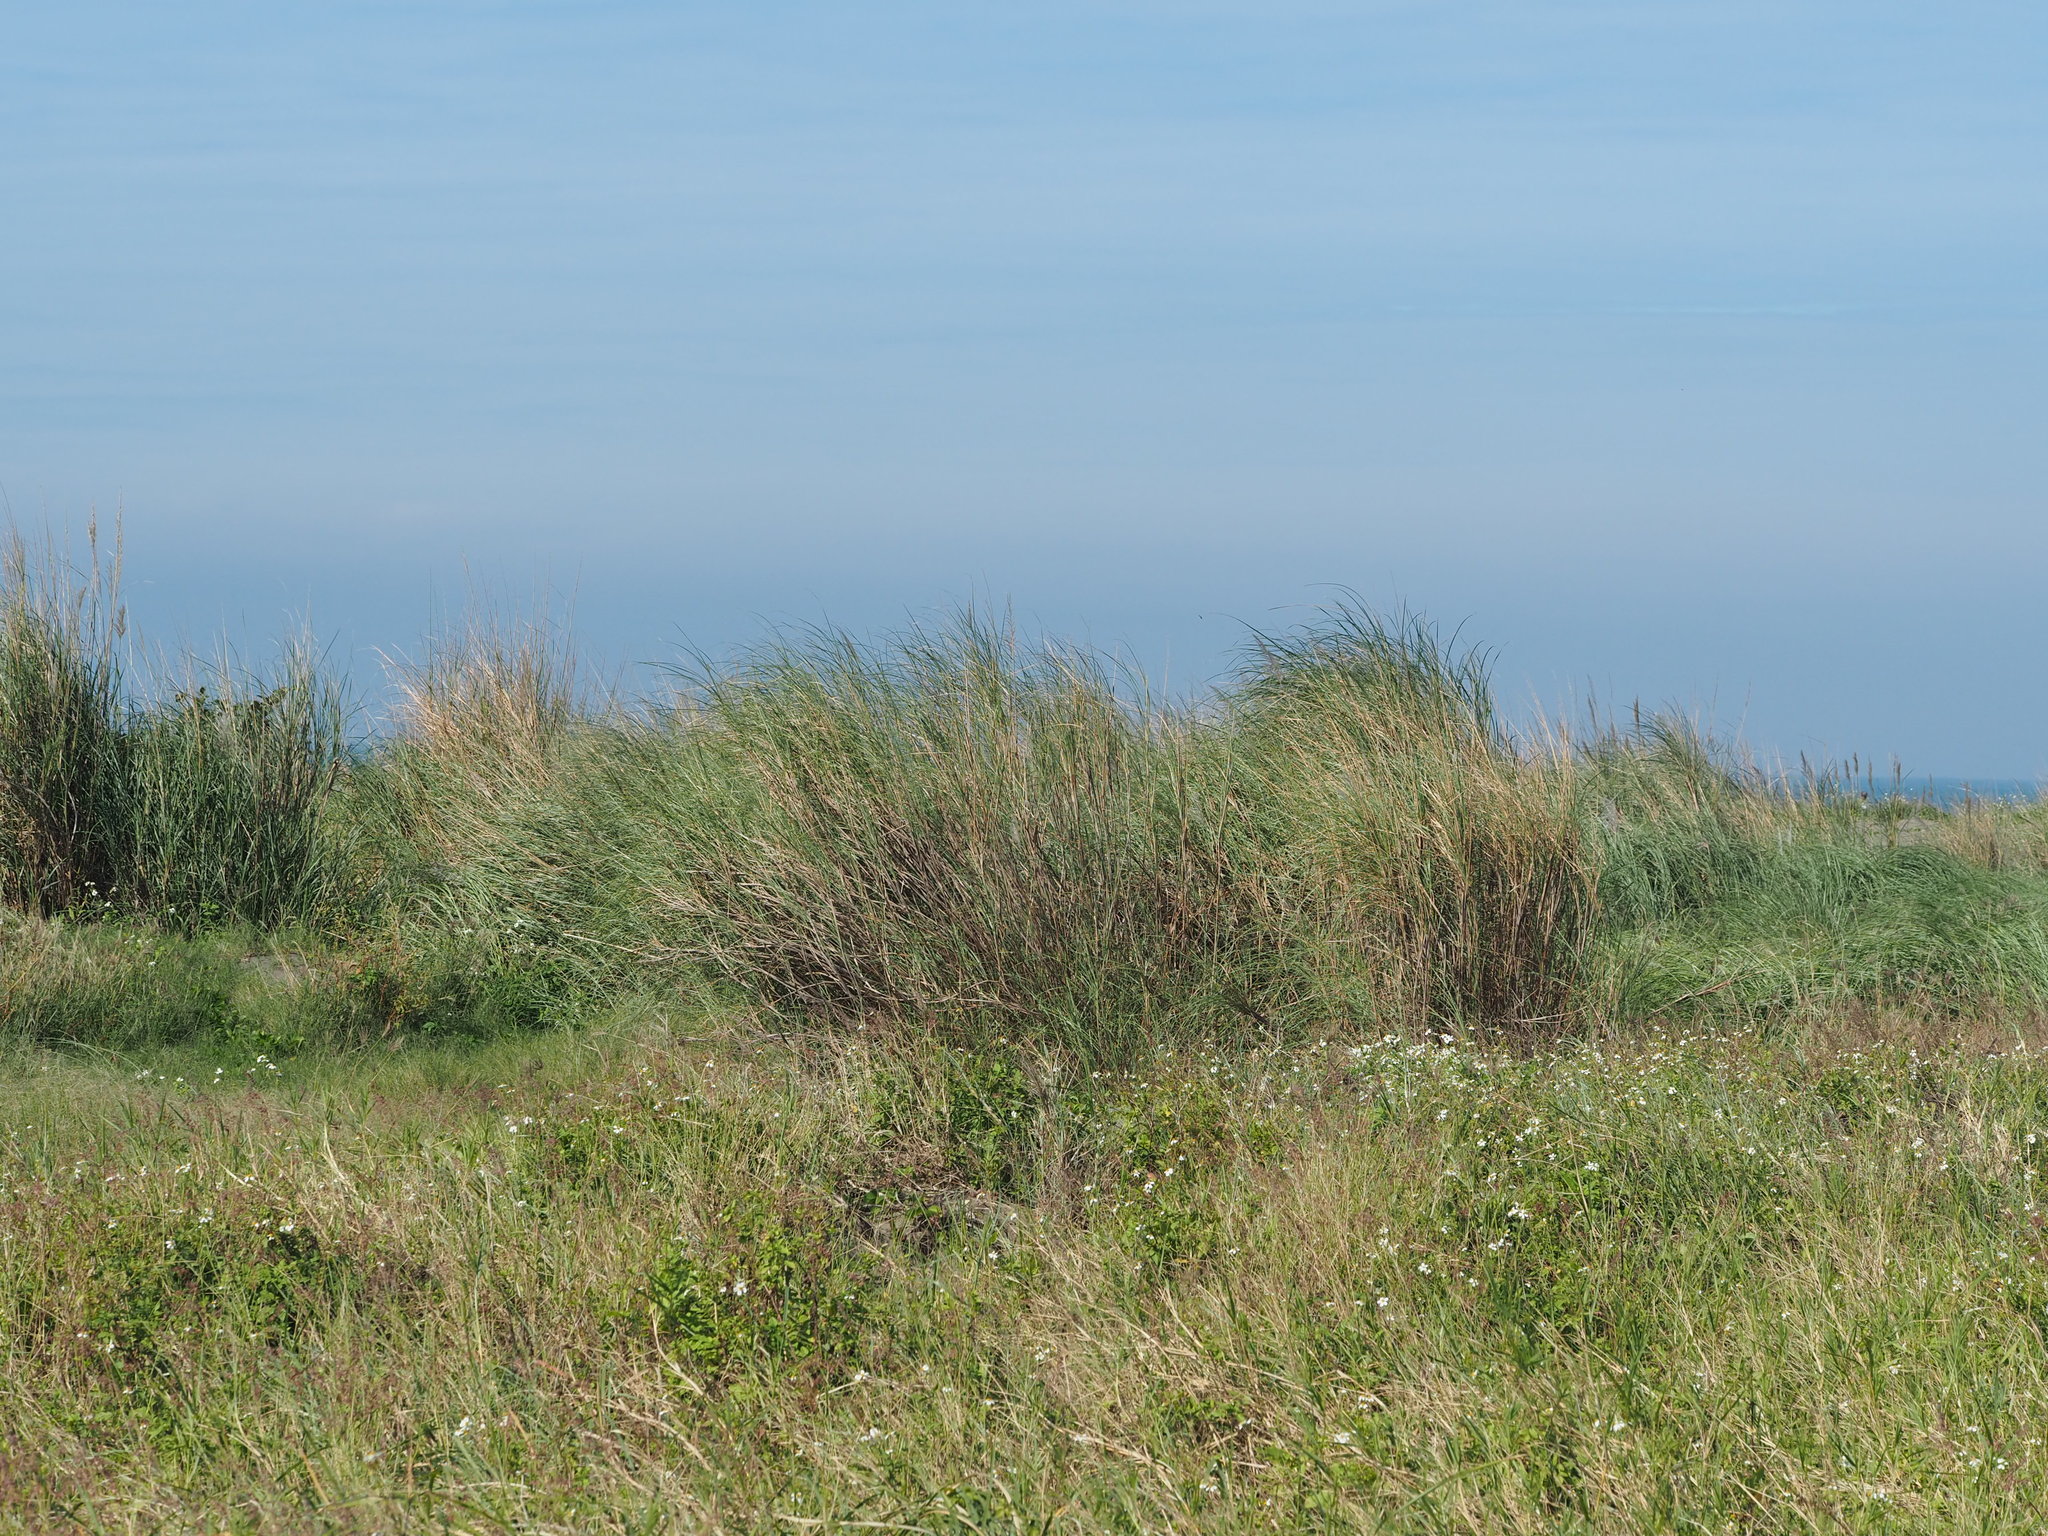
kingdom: Plantae
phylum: Tracheophyta
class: Liliopsida
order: Poales
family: Poaceae
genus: Saccharum
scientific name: Saccharum spontaneum
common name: Wild sugarcane
